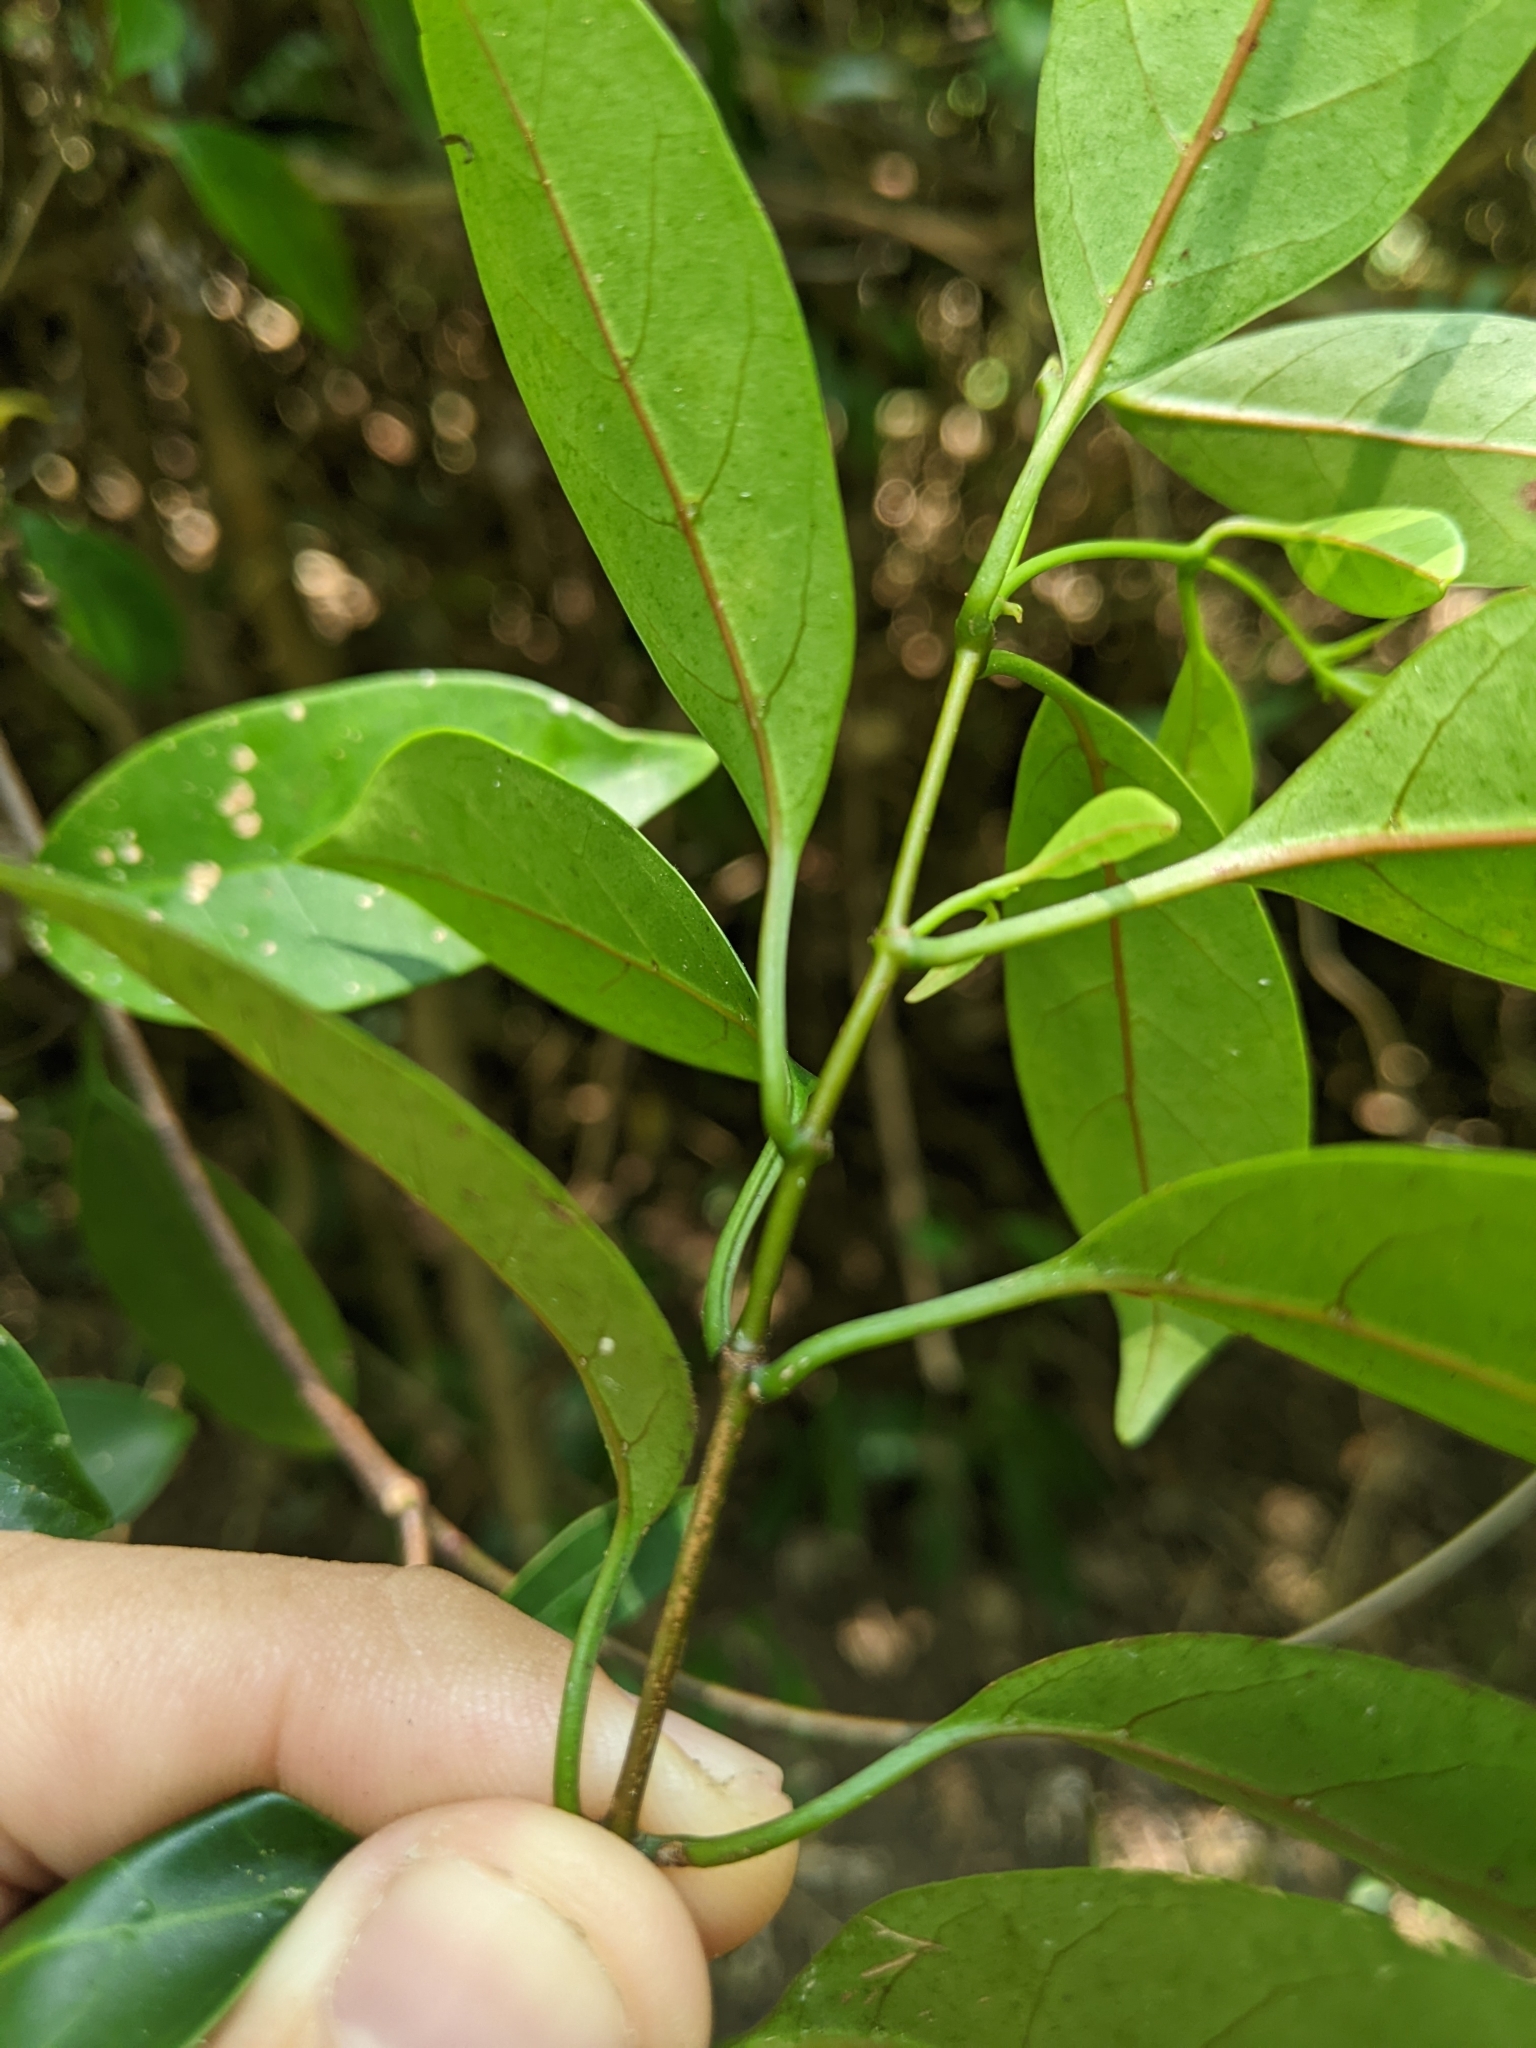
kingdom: Plantae
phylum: Tracheophyta
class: Magnoliopsida
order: Gentianales
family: Apocynaceae
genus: Urceola
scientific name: Urceola rosea
